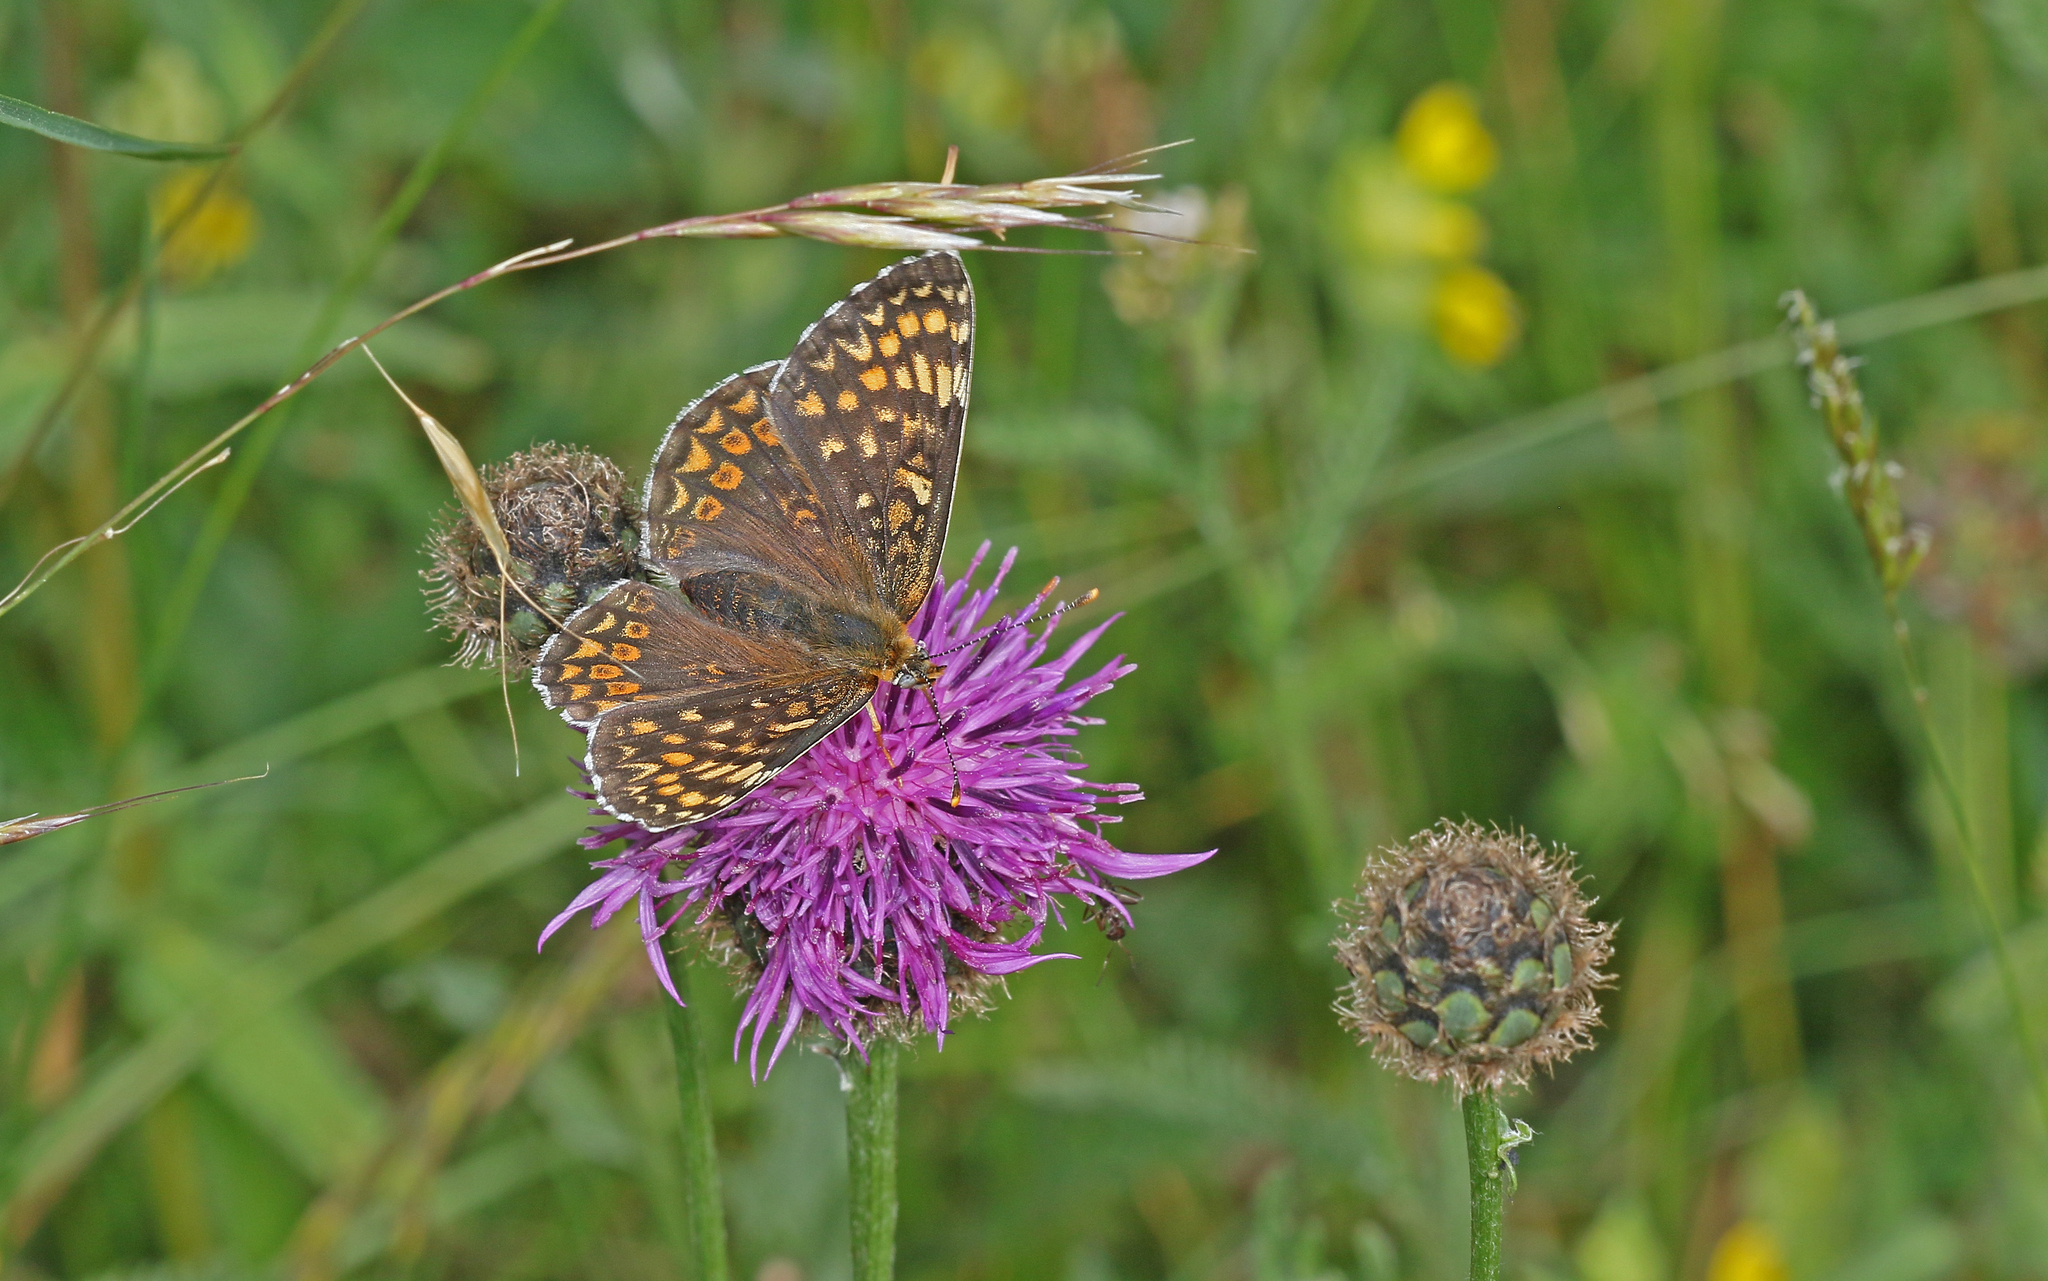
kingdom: Animalia
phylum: Arthropoda
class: Insecta
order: Lepidoptera
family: Nymphalidae
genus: Melitaea
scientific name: Melitaea phoebe
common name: Knapweed fritillary
